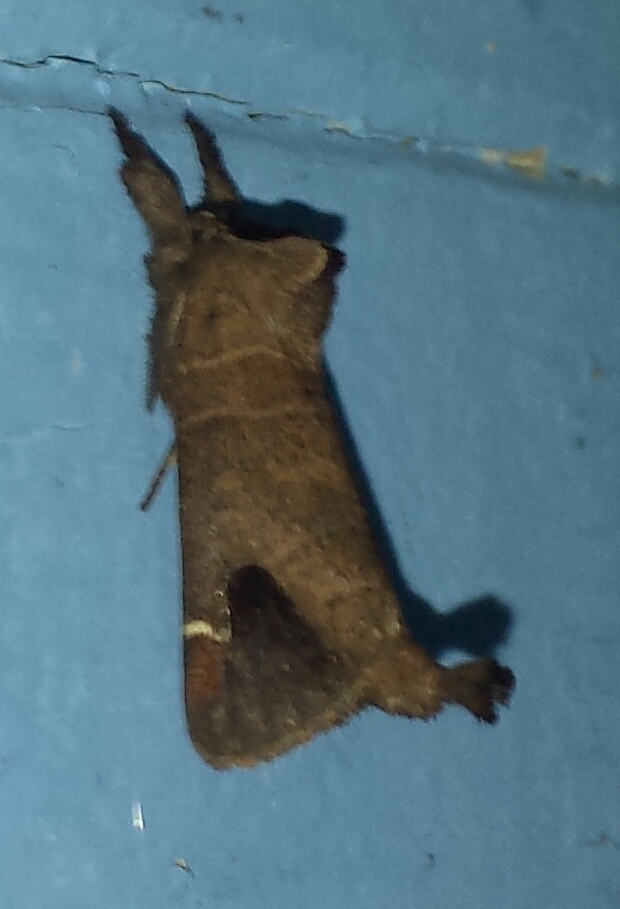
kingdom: Animalia
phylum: Arthropoda
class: Insecta
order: Lepidoptera
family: Notodontidae
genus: Clostera
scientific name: Clostera albosigma
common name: Sigmoid prominent
